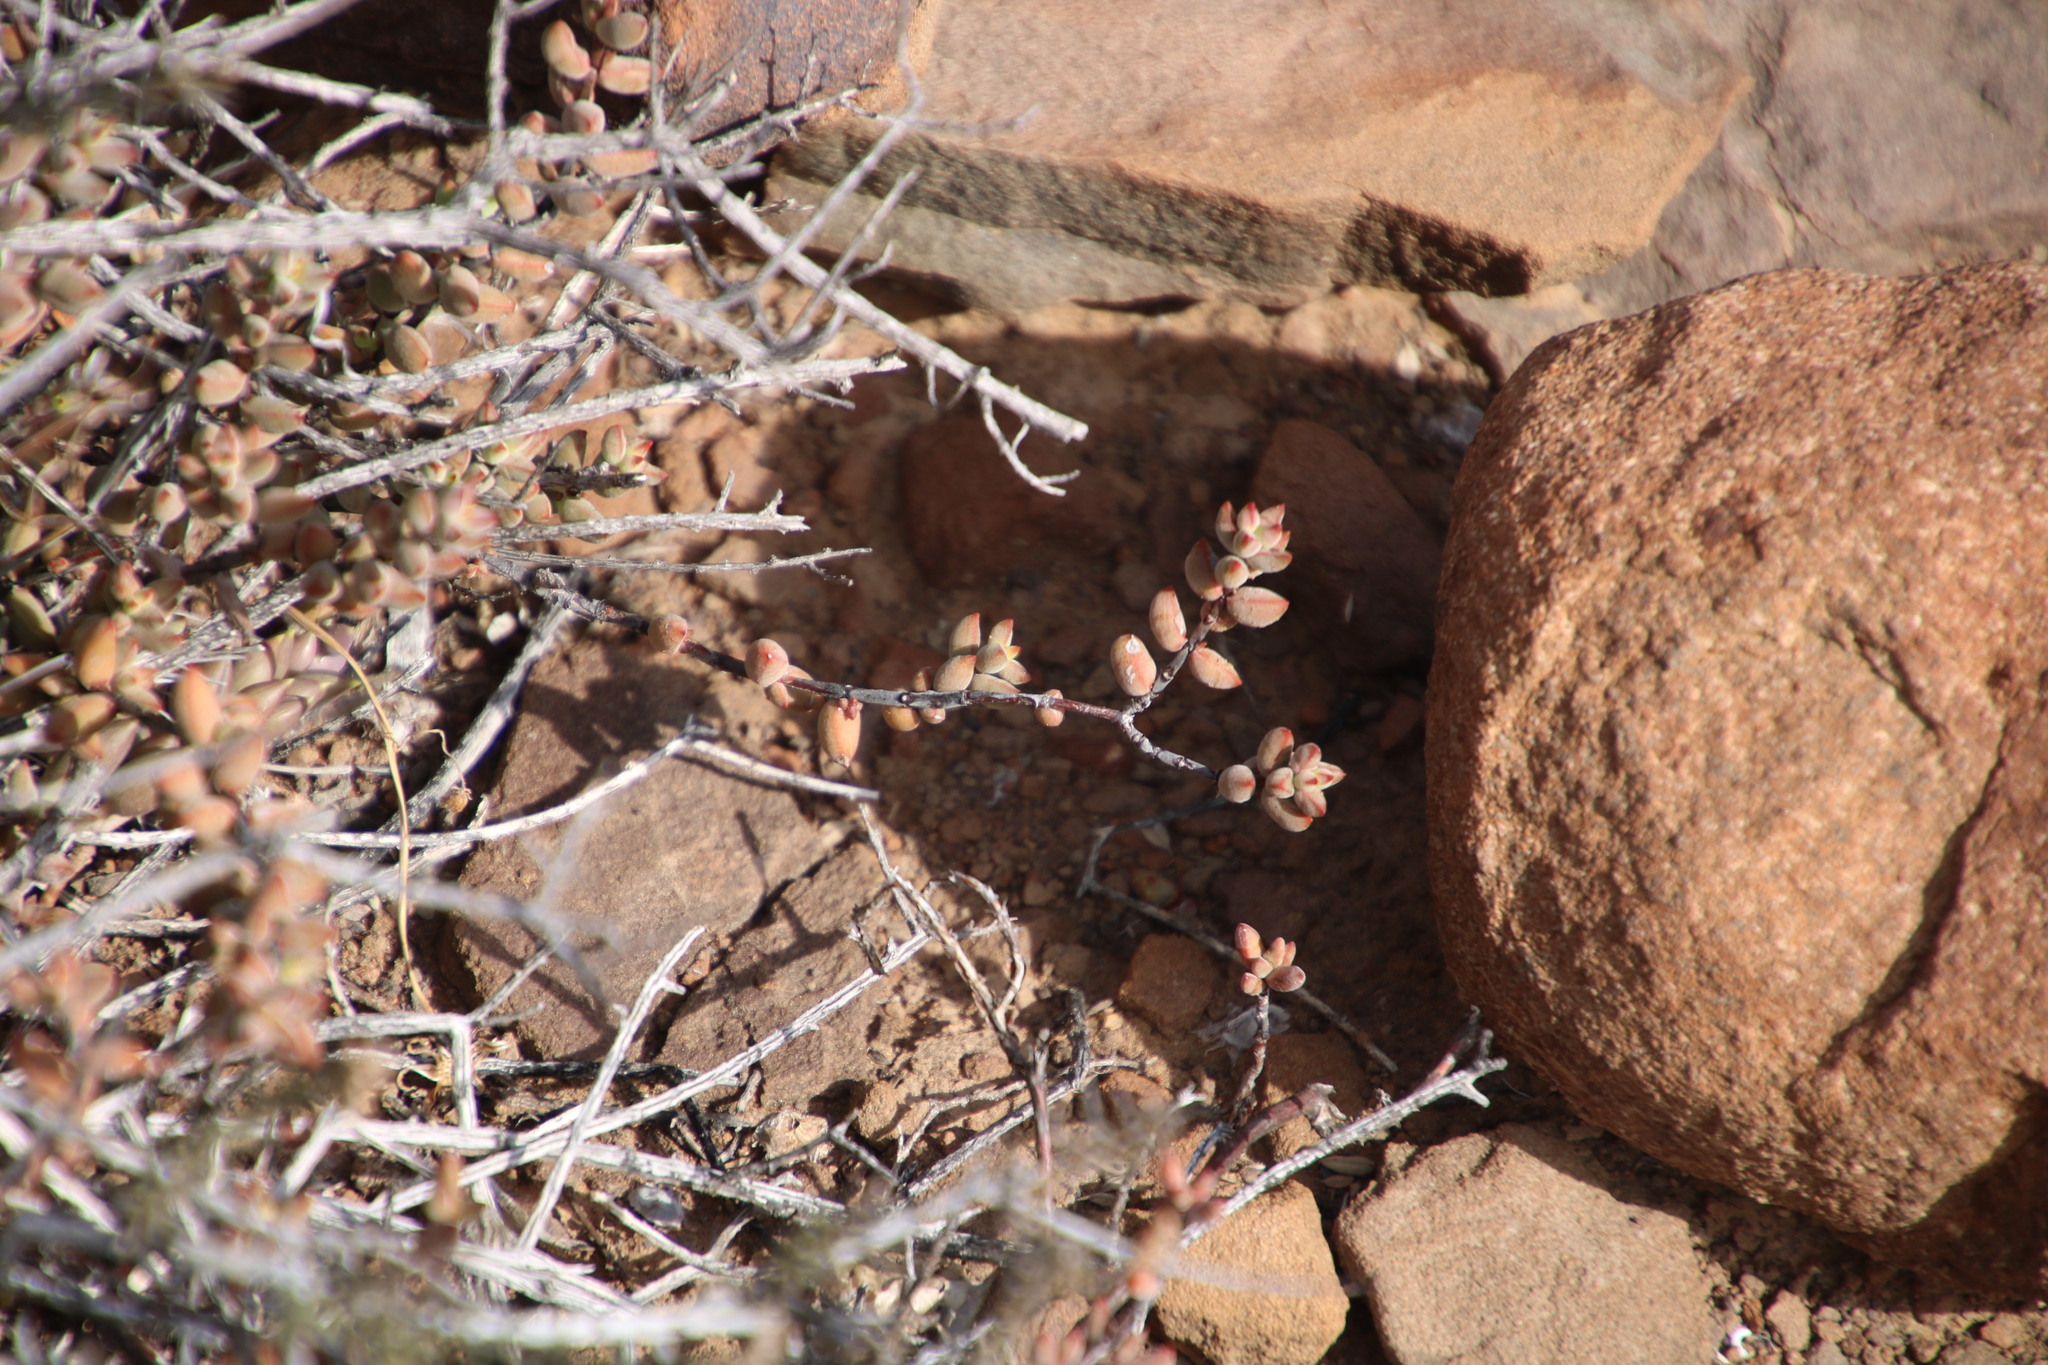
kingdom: Plantae
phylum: Tracheophyta
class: Magnoliopsida
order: Saxifragales
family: Crassulaceae
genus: Crassula
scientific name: Crassula subaphylla
